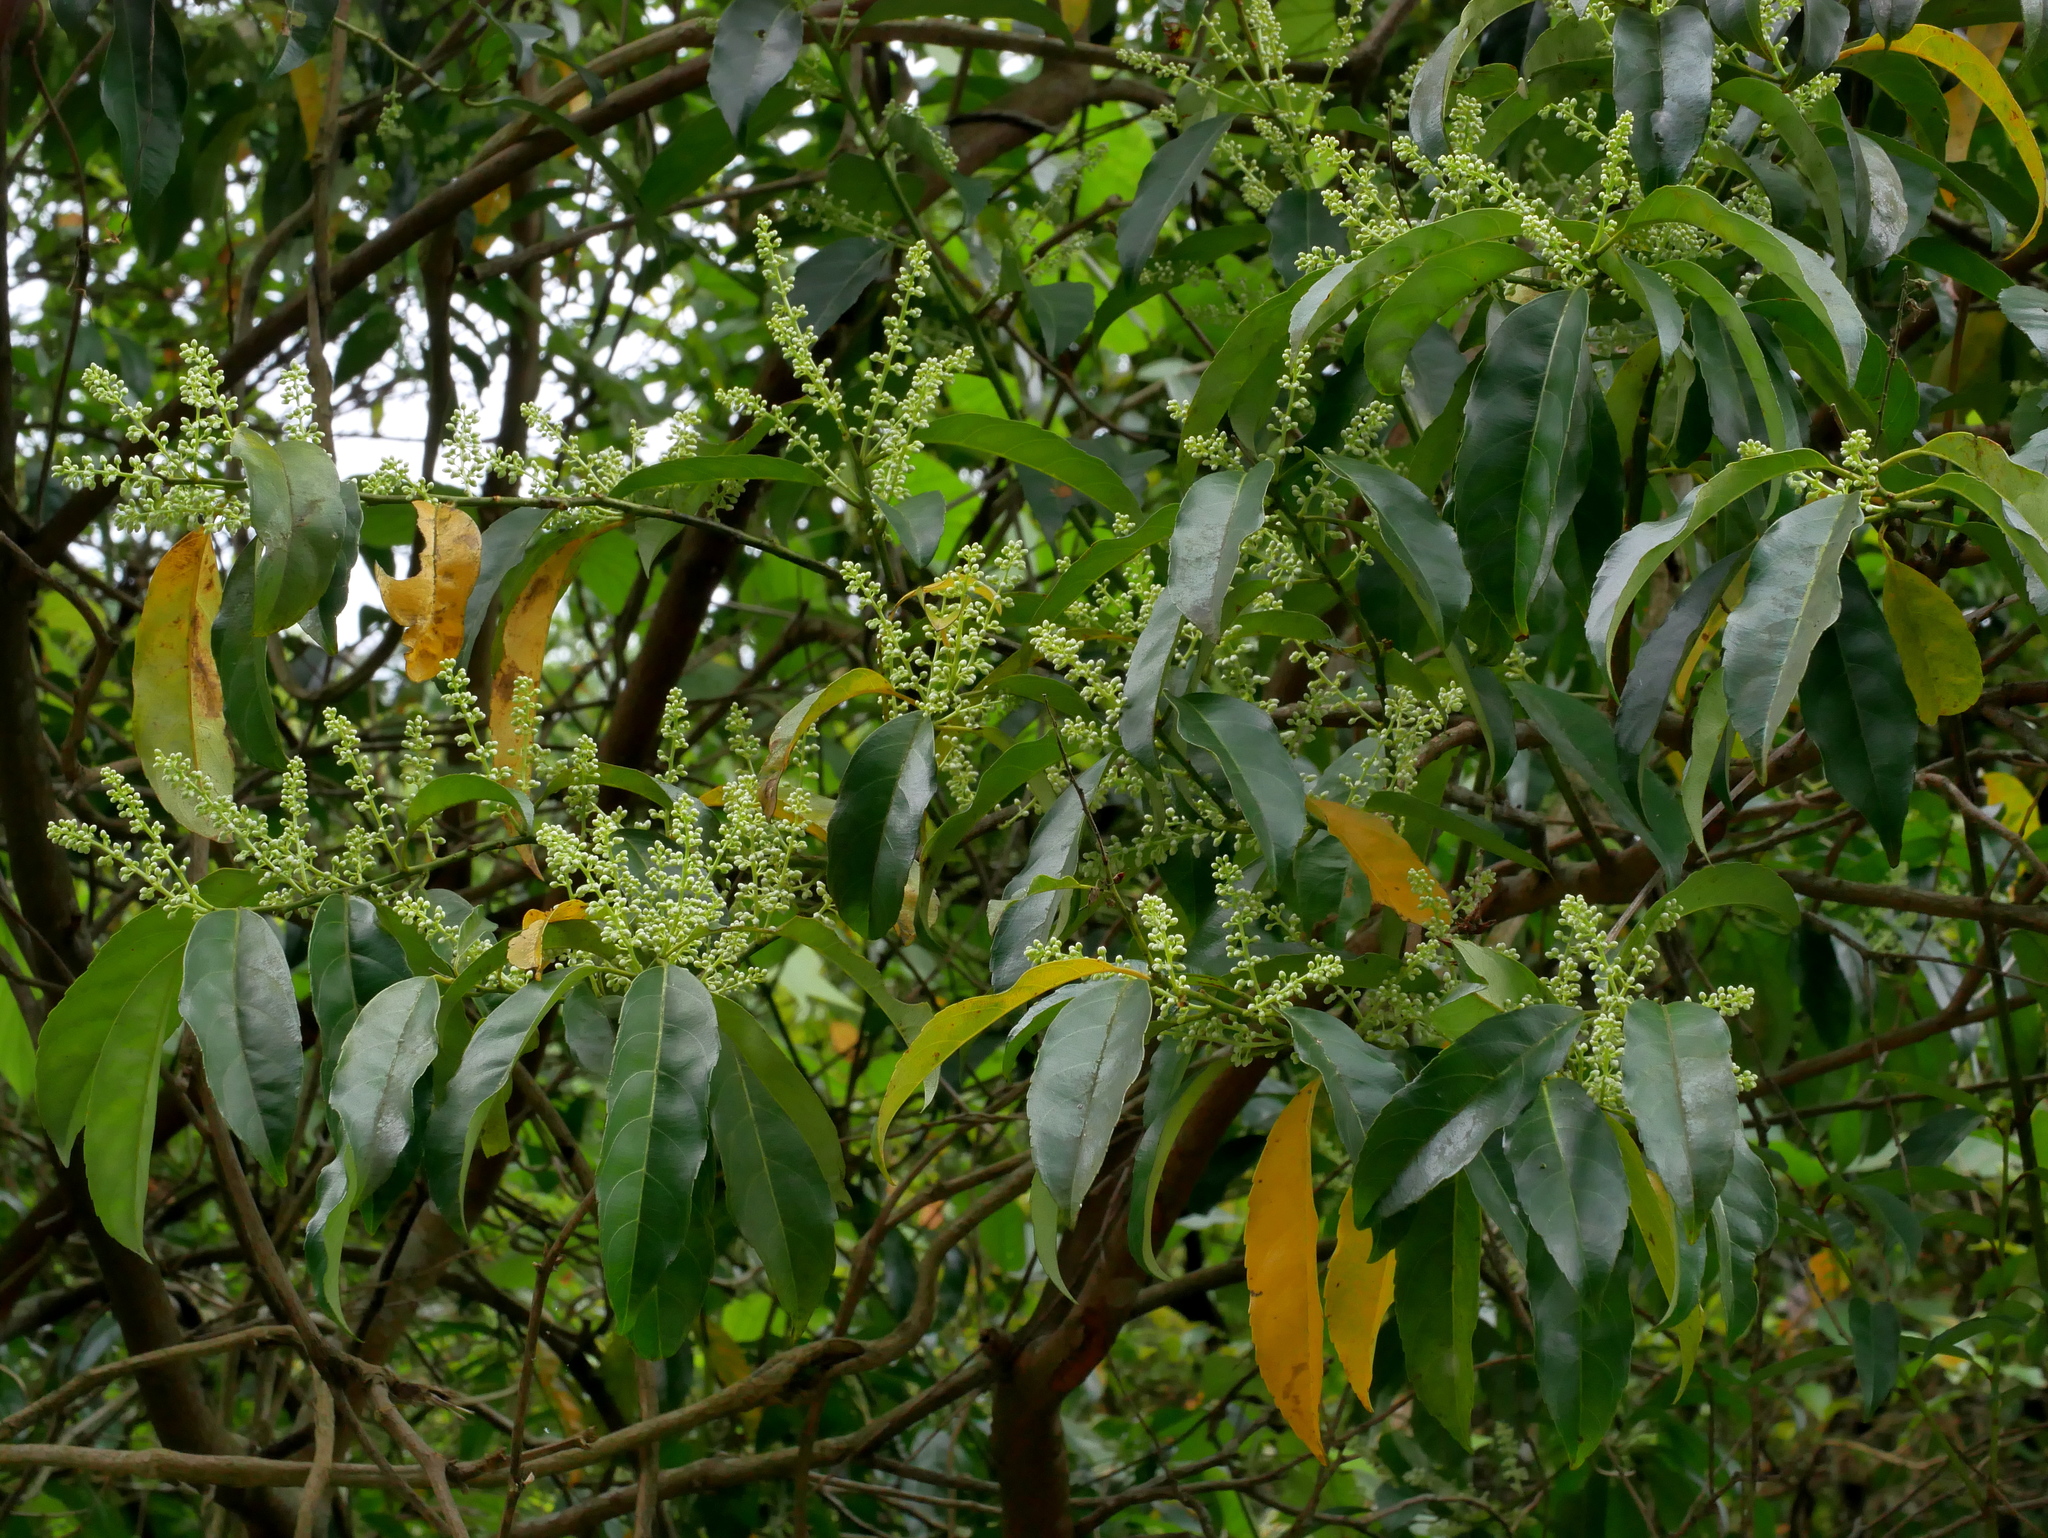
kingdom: Plantae
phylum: Tracheophyta
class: Magnoliopsida
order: Saxifragales
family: Iteaceae
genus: Itea
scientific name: Itea parviflora
